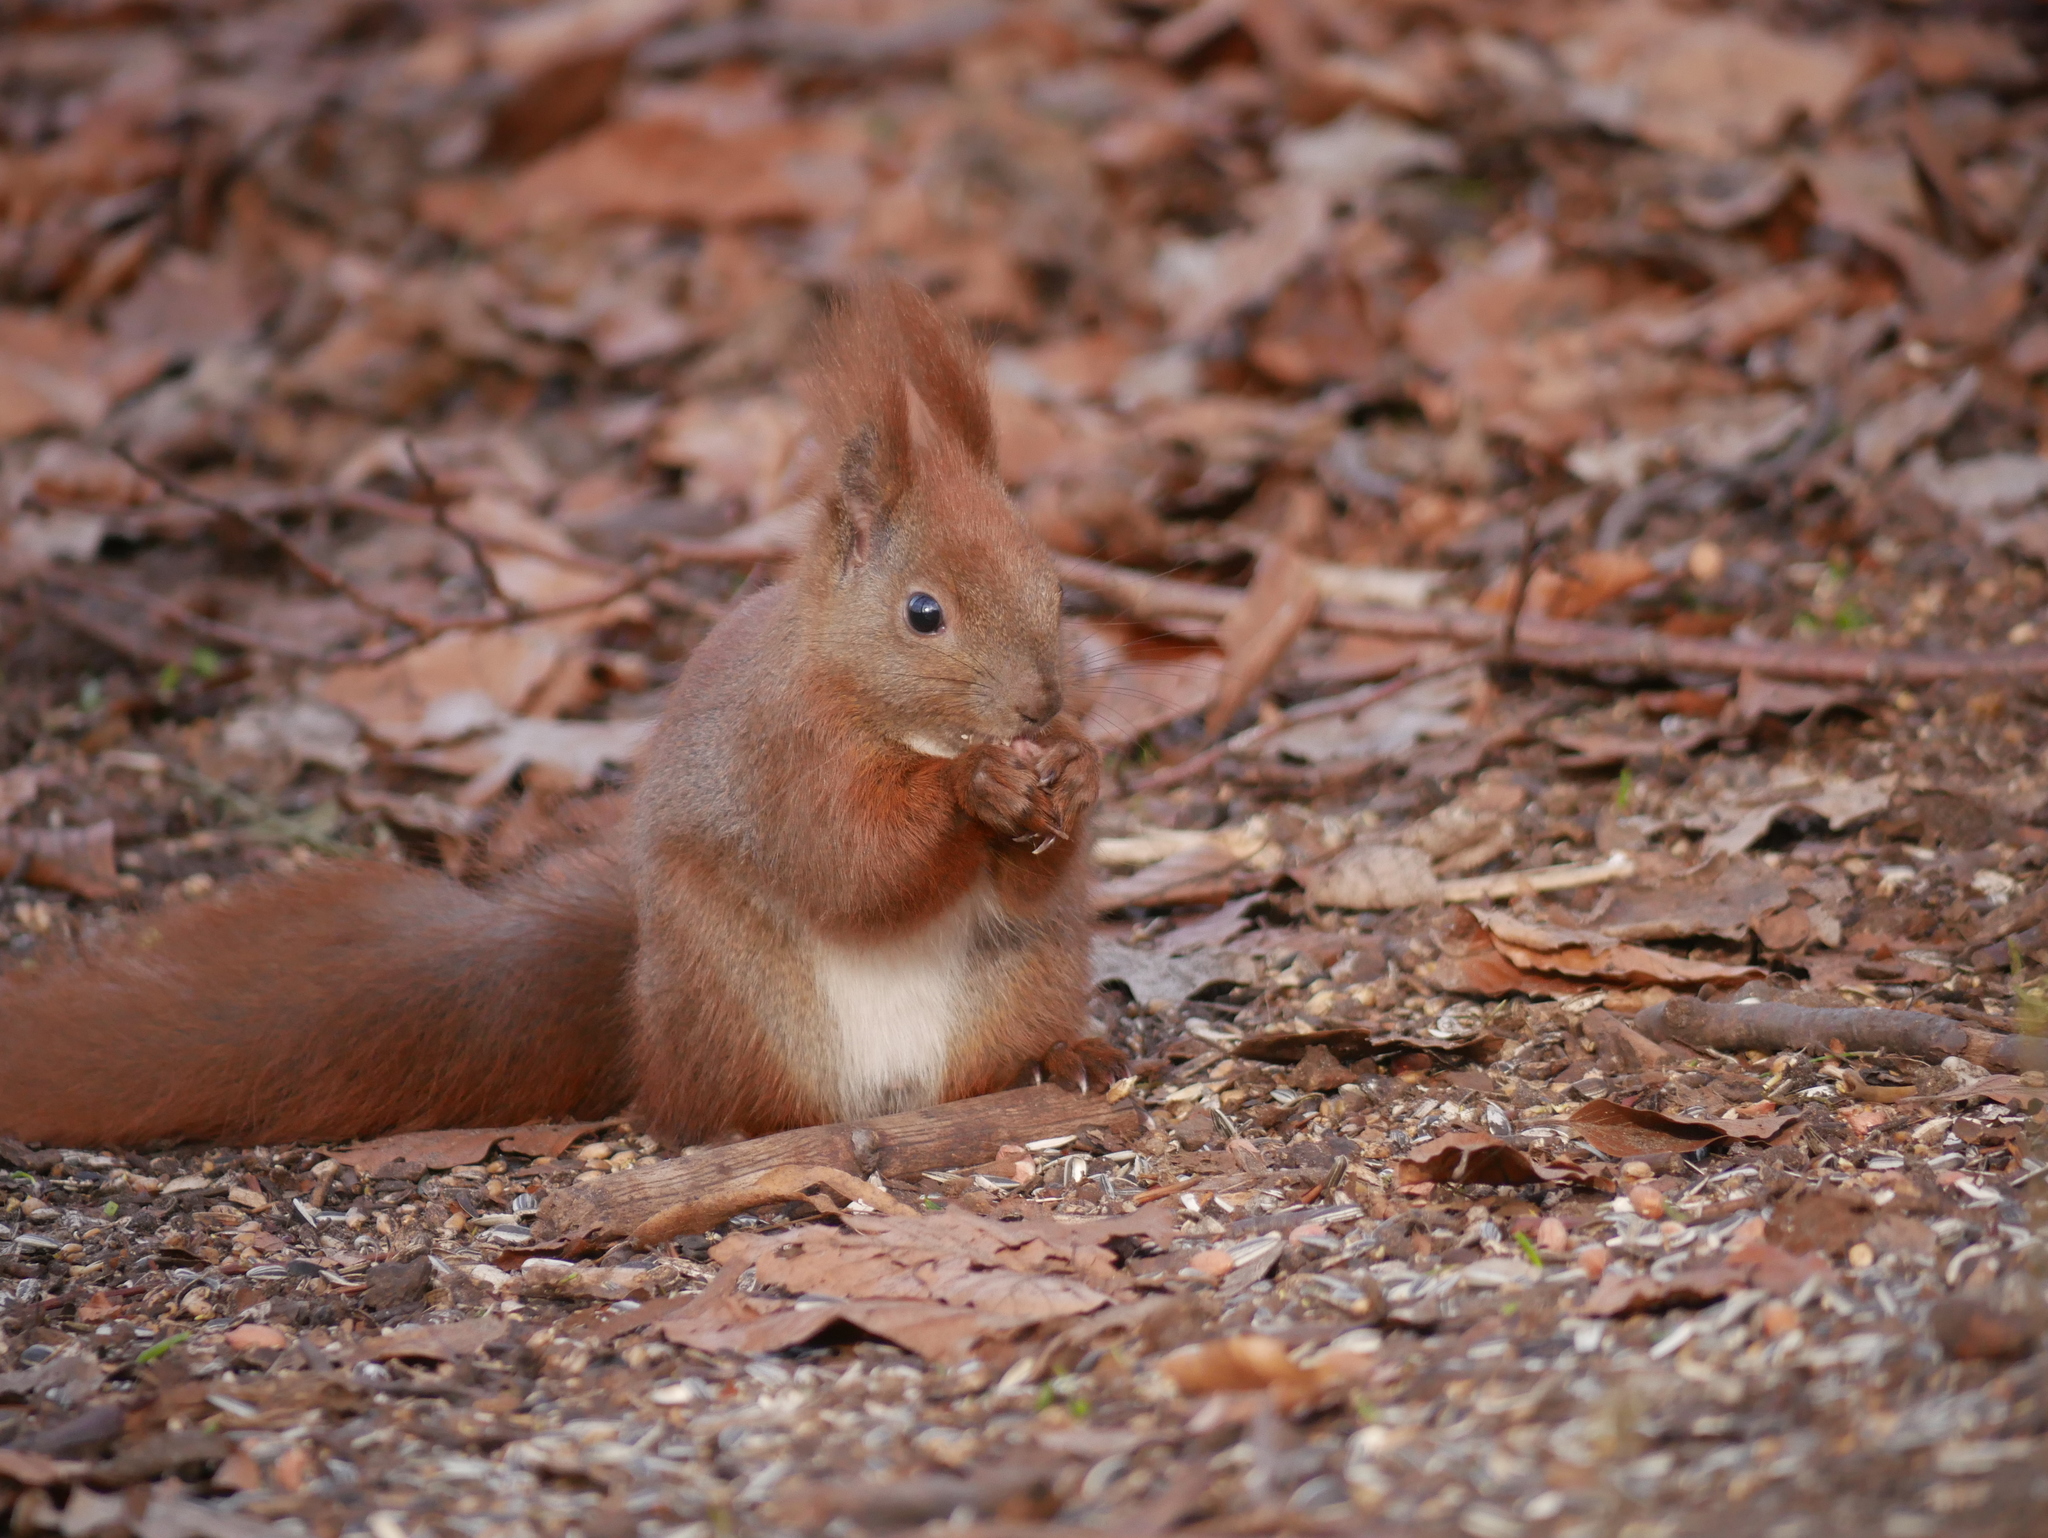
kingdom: Animalia
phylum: Chordata
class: Mammalia
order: Rodentia
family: Sciuridae
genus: Sciurus
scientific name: Sciurus vulgaris
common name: Eurasian red squirrel
